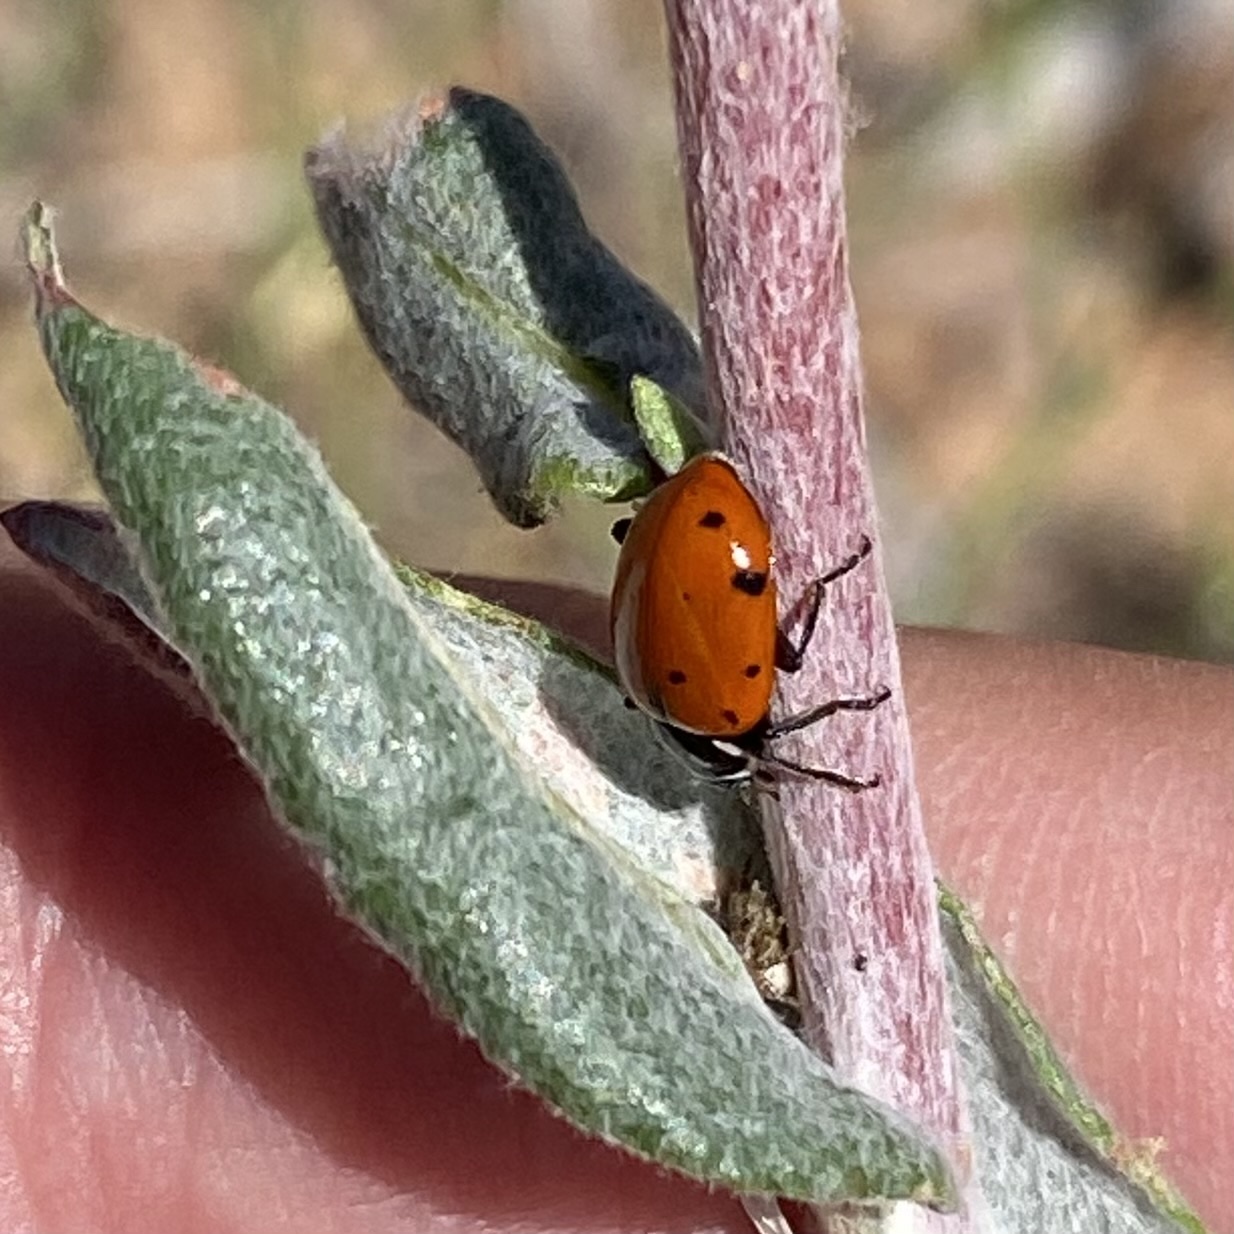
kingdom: Animalia
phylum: Arthropoda
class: Insecta
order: Coleoptera
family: Coccinellidae
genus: Hippodamia
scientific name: Hippodamia convergens
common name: Convergent lady beetle
